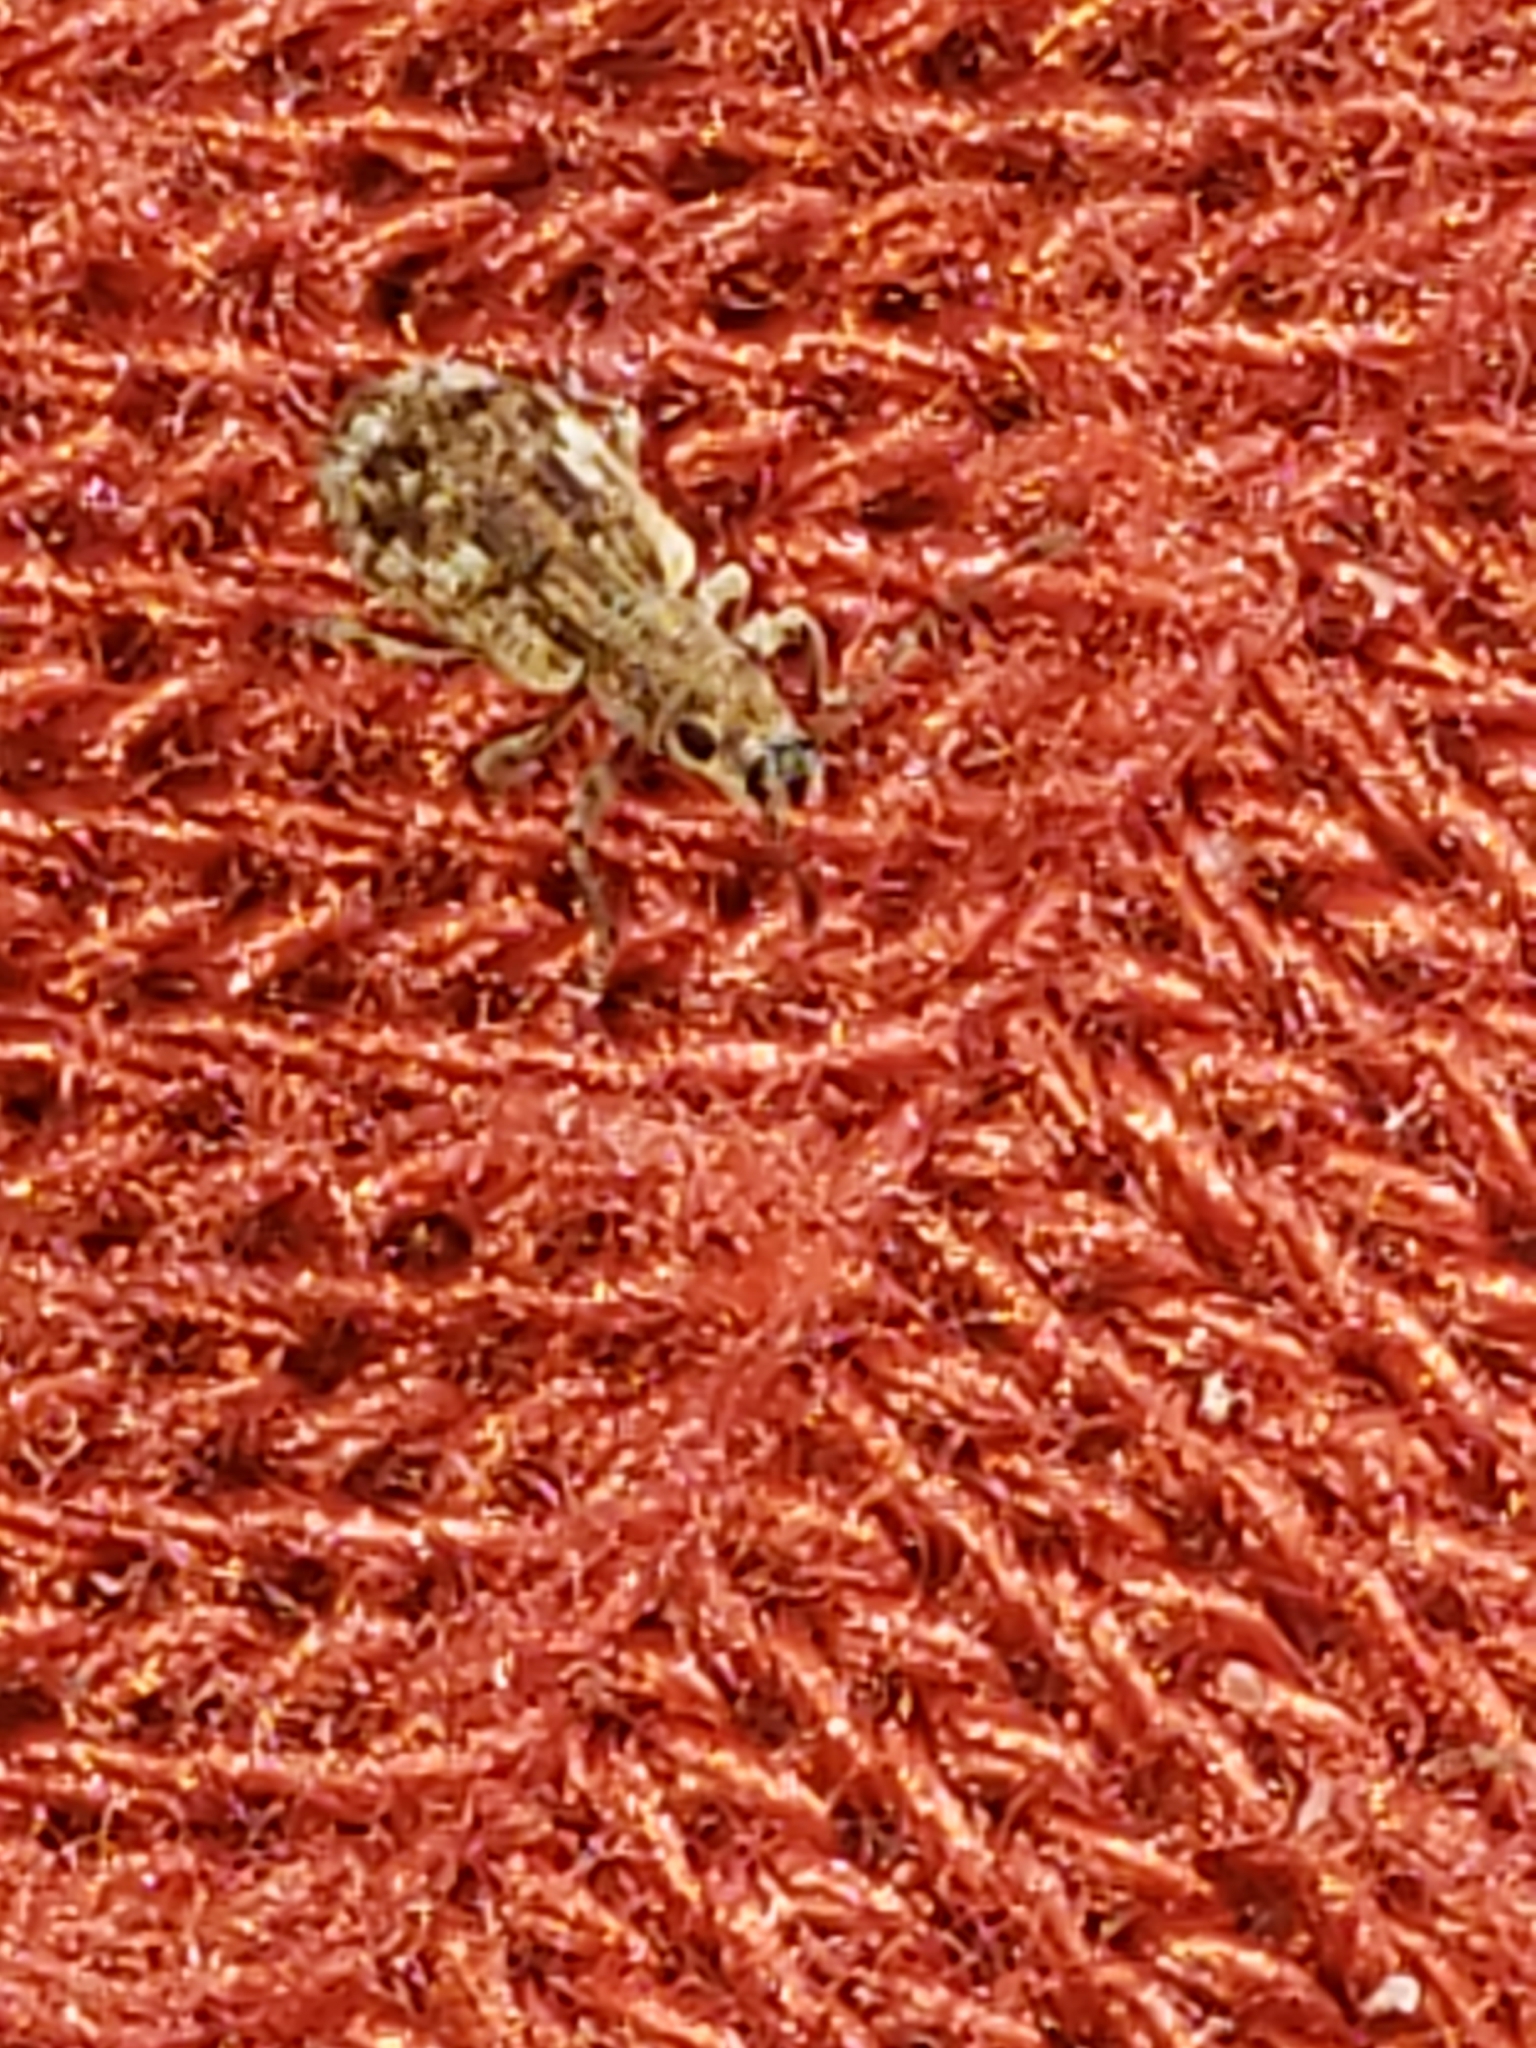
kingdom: Animalia
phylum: Arthropoda
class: Insecta
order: Coleoptera
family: Curculionidae
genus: Pseudoedophrys
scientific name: Pseudoedophrys hilleri
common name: Weevil
